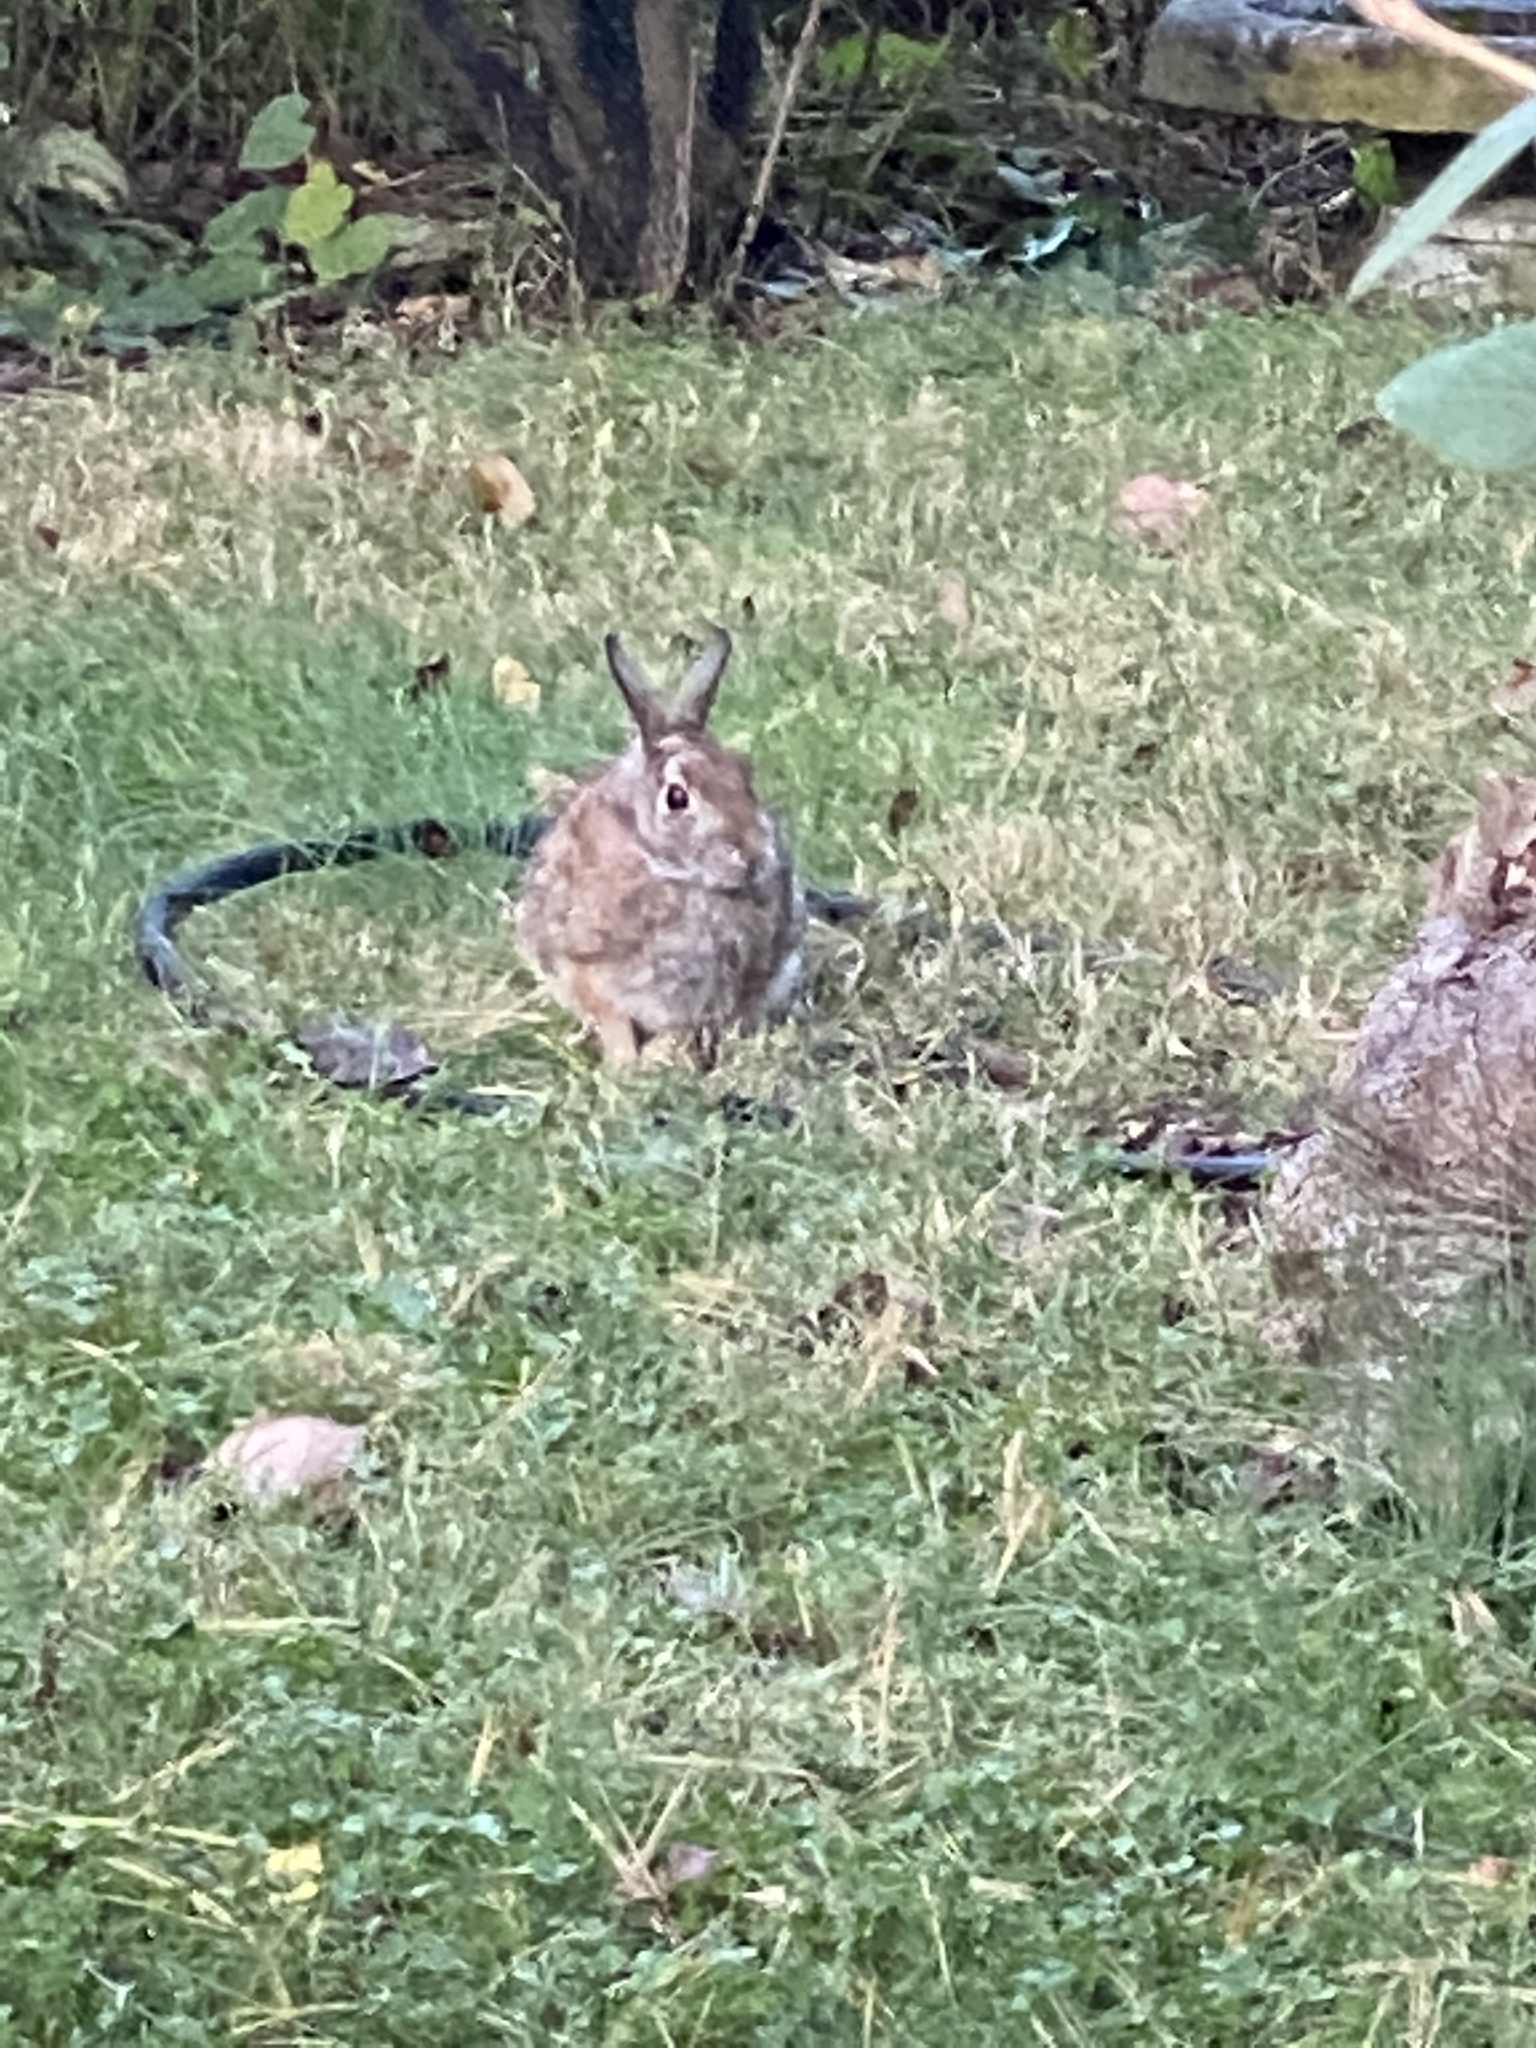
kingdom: Animalia
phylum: Chordata
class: Mammalia
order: Lagomorpha
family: Leporidae
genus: Sylvilagus
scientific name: Sylvilagus floridanus
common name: Eastern cottontail
